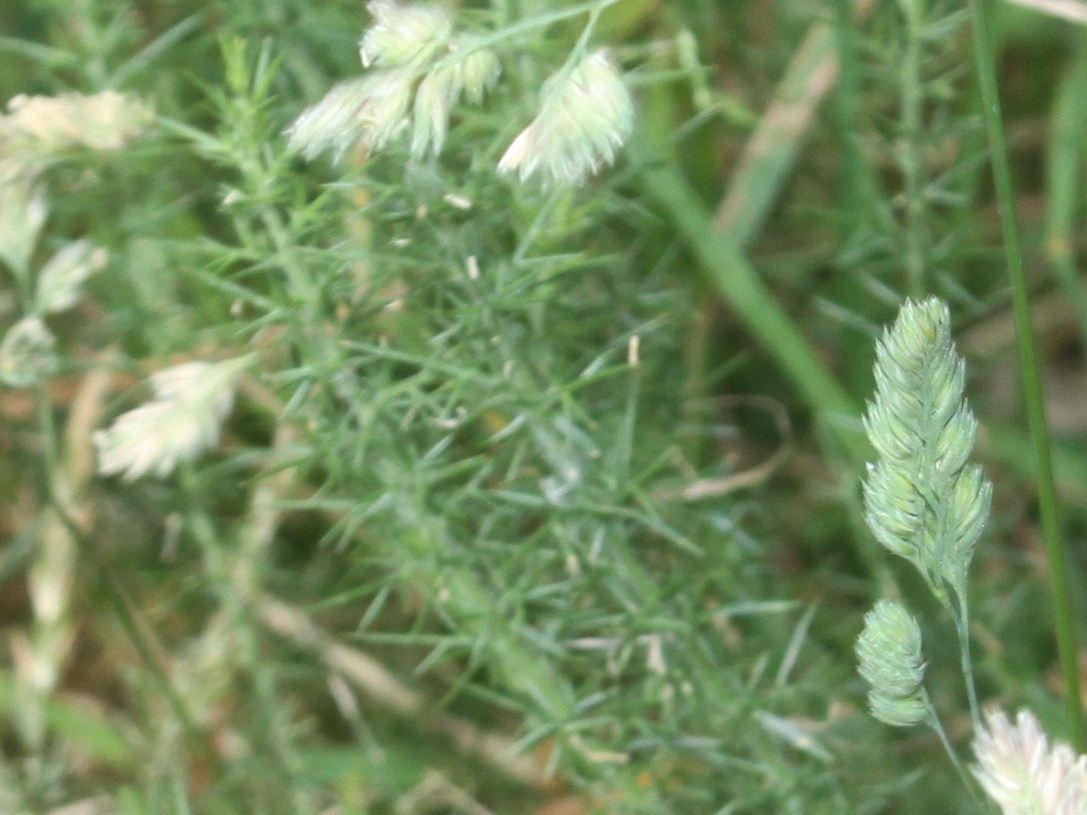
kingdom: Plantae
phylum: Tracheophyta
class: Magnoliopsida
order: Fabales
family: Fabaceae
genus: Ulex
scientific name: Ulex europaeus
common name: Common gorse
